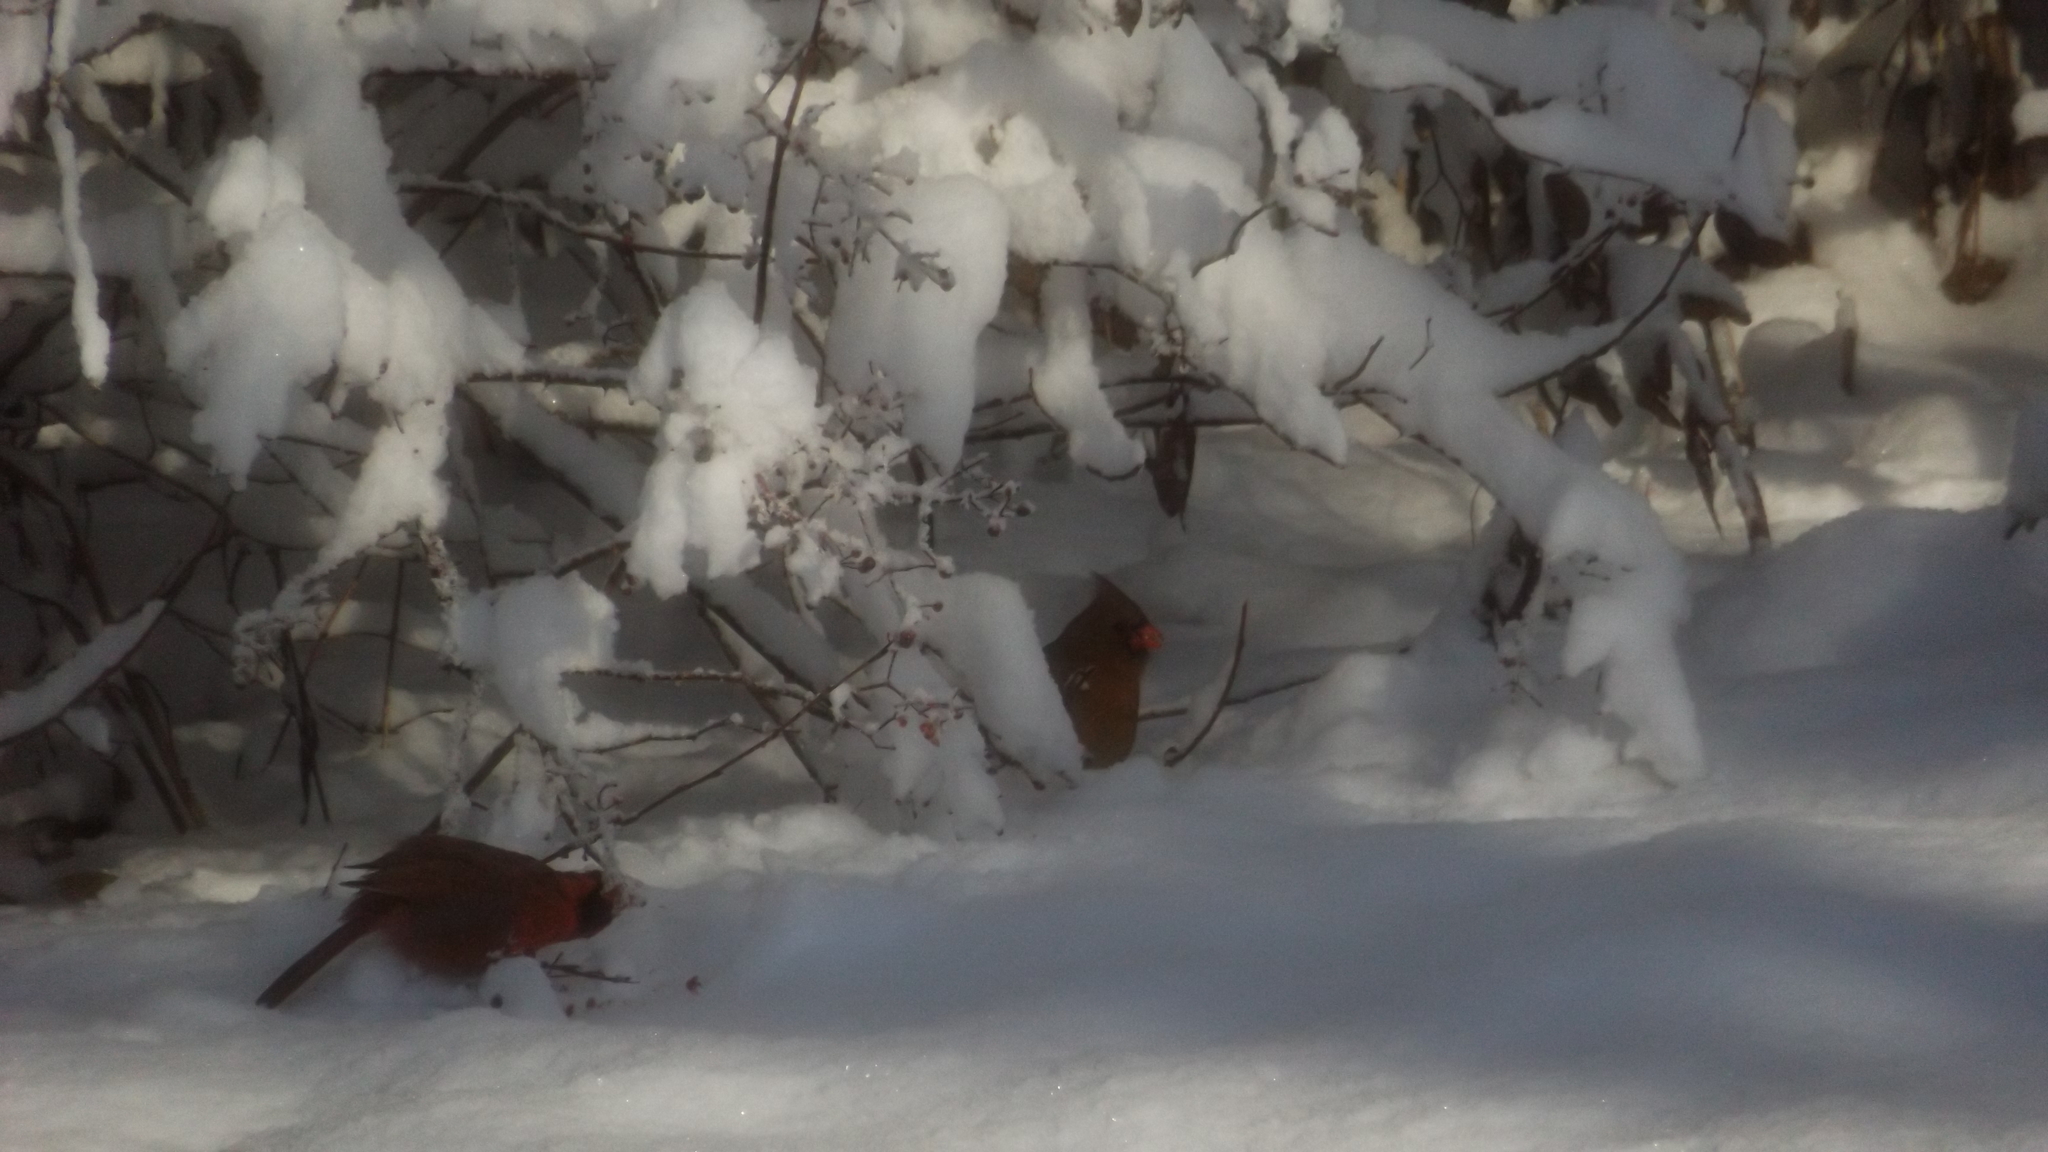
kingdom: Animalia
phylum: Chordata
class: Aves
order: Passeriformes
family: Cardinalidae
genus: Cardinalis
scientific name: Cardinalis cardinalis
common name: Northern cardinal
